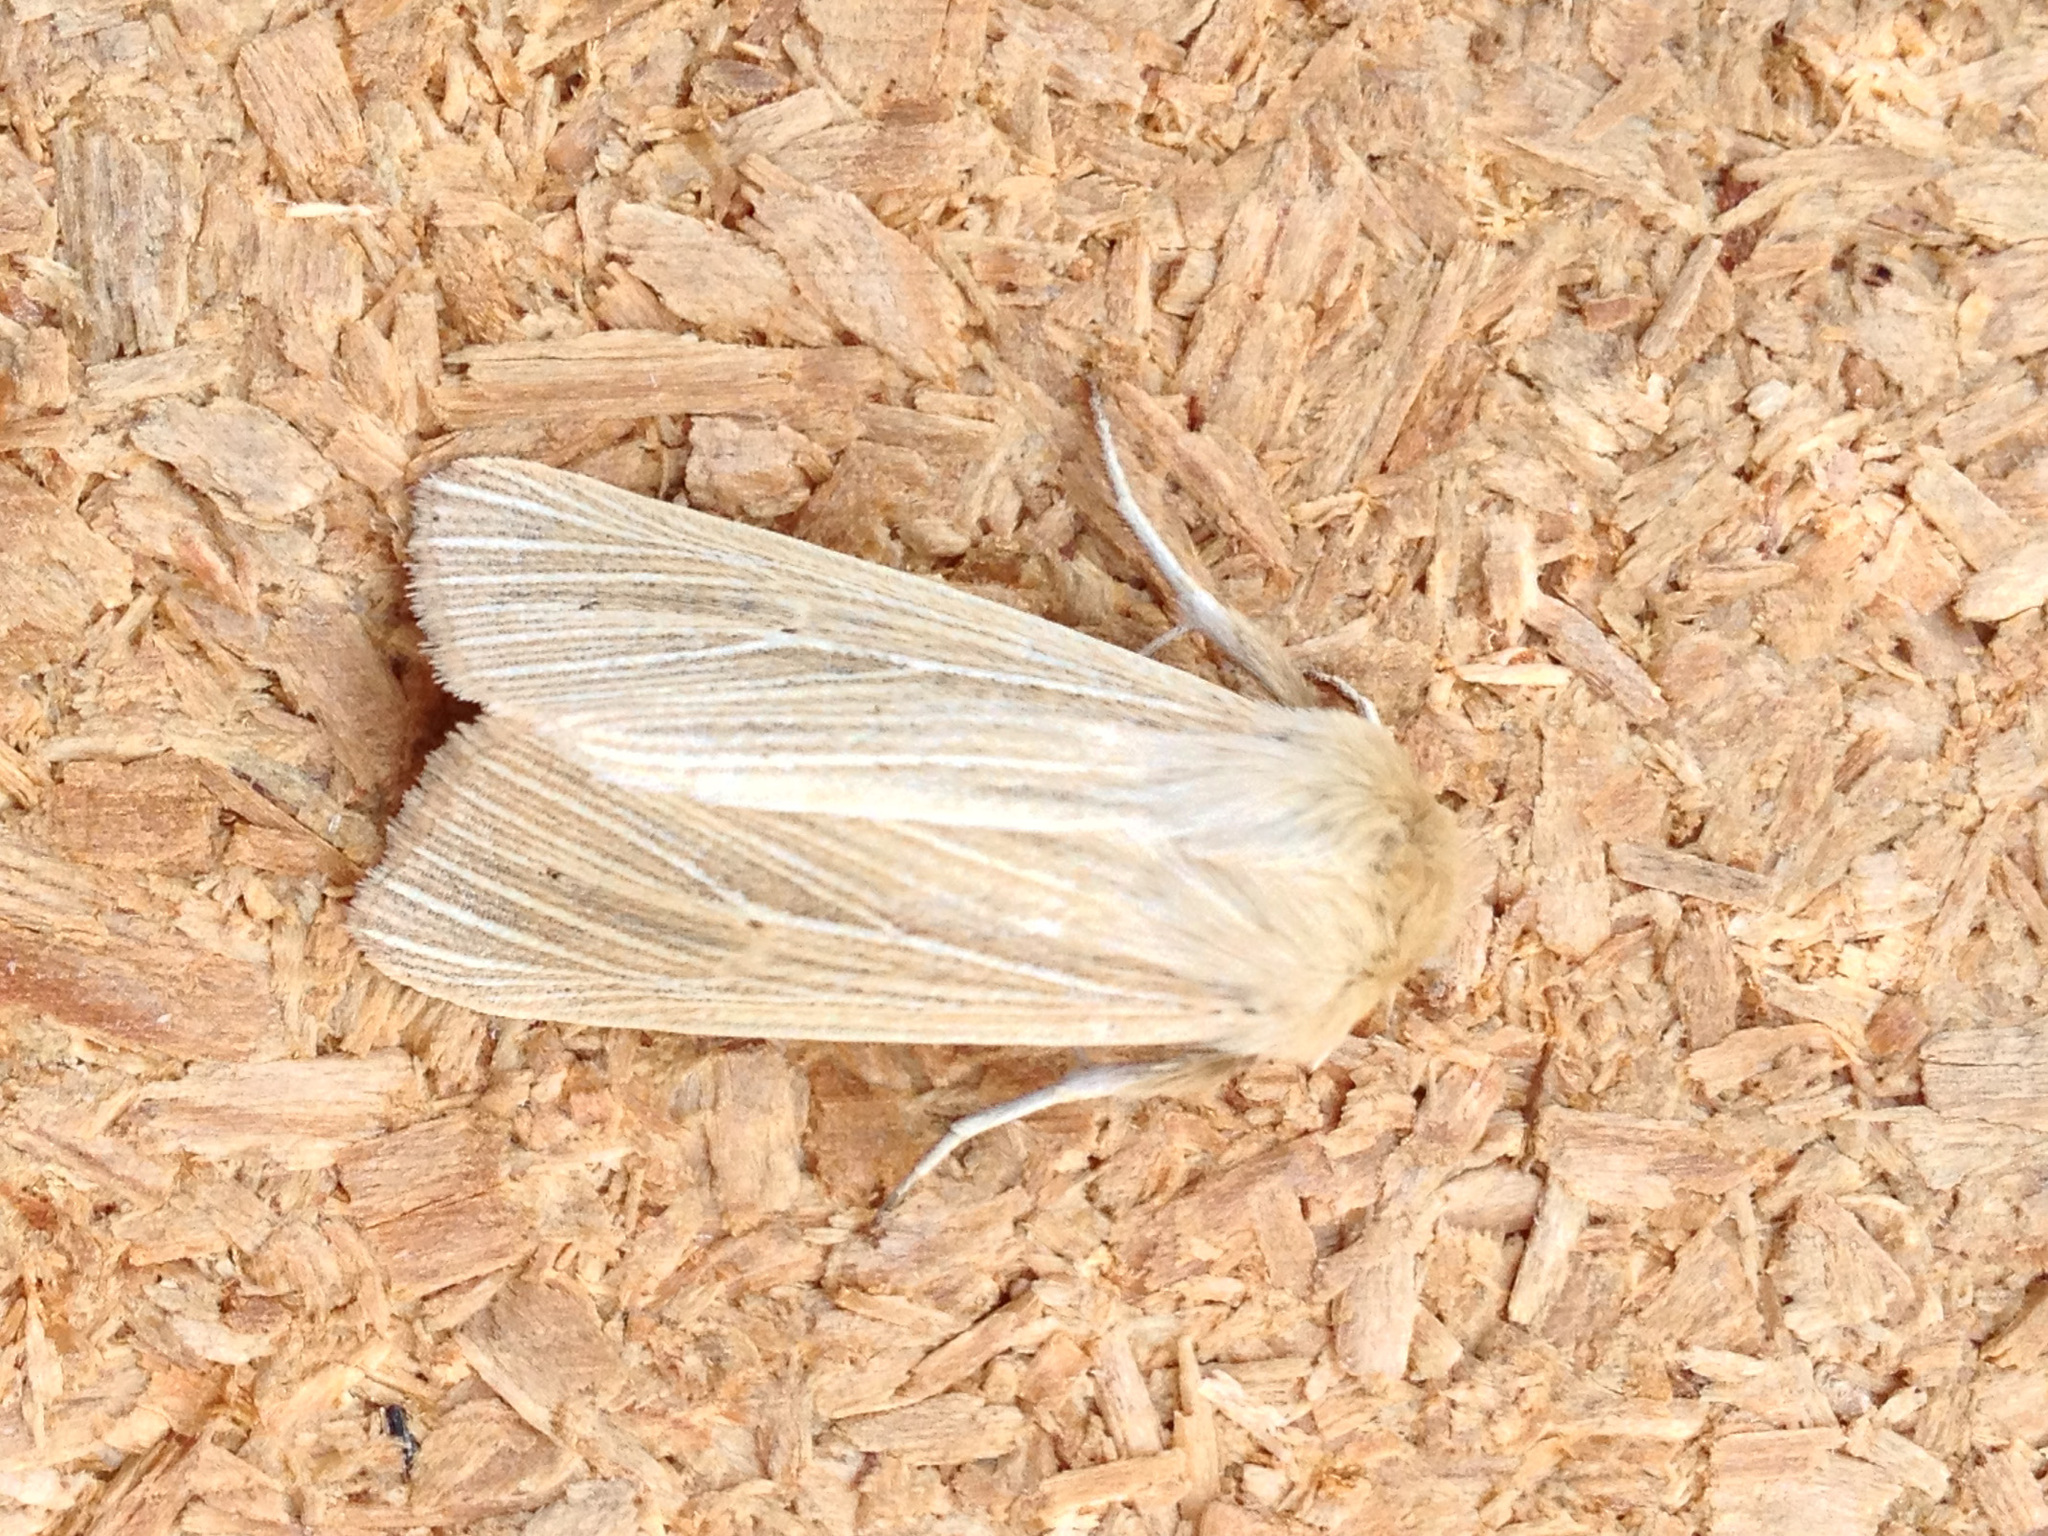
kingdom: Animalia
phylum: Arthropoda
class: Insecta
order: Lepidoptera
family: Noctuidae
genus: Mythimna
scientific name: Mythimna pallens
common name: Common wainscot
